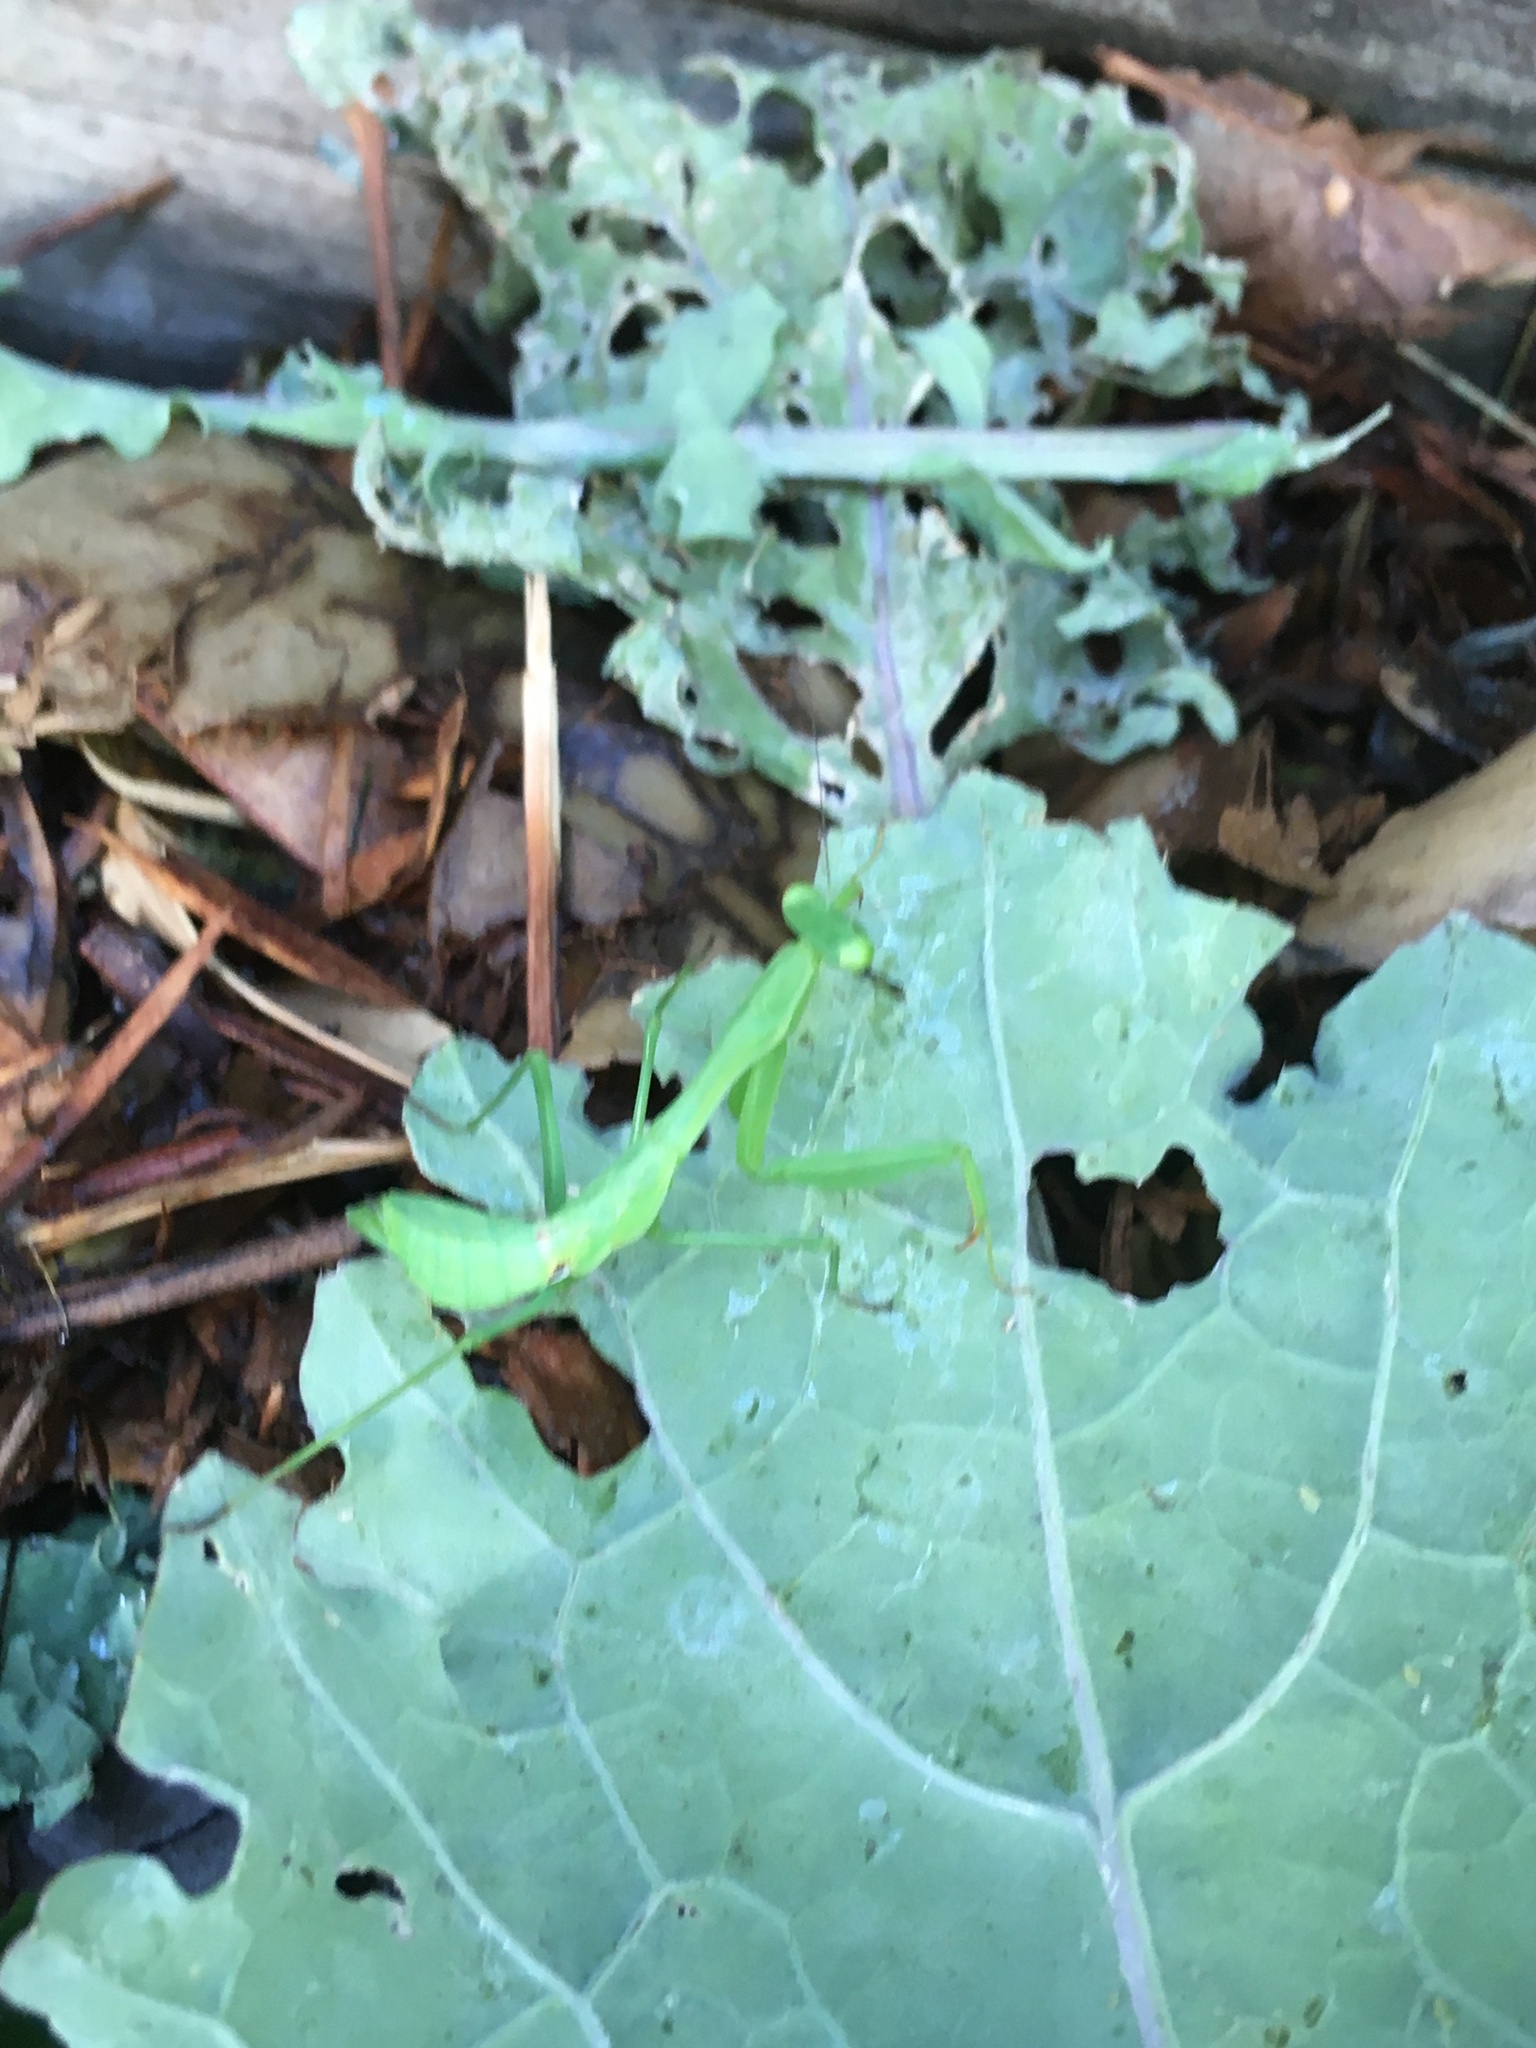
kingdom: Animalia
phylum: Arthropoda
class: Insecta
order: Mantodea
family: Miomantidae
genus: Miomantis
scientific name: Miomantis caffra
